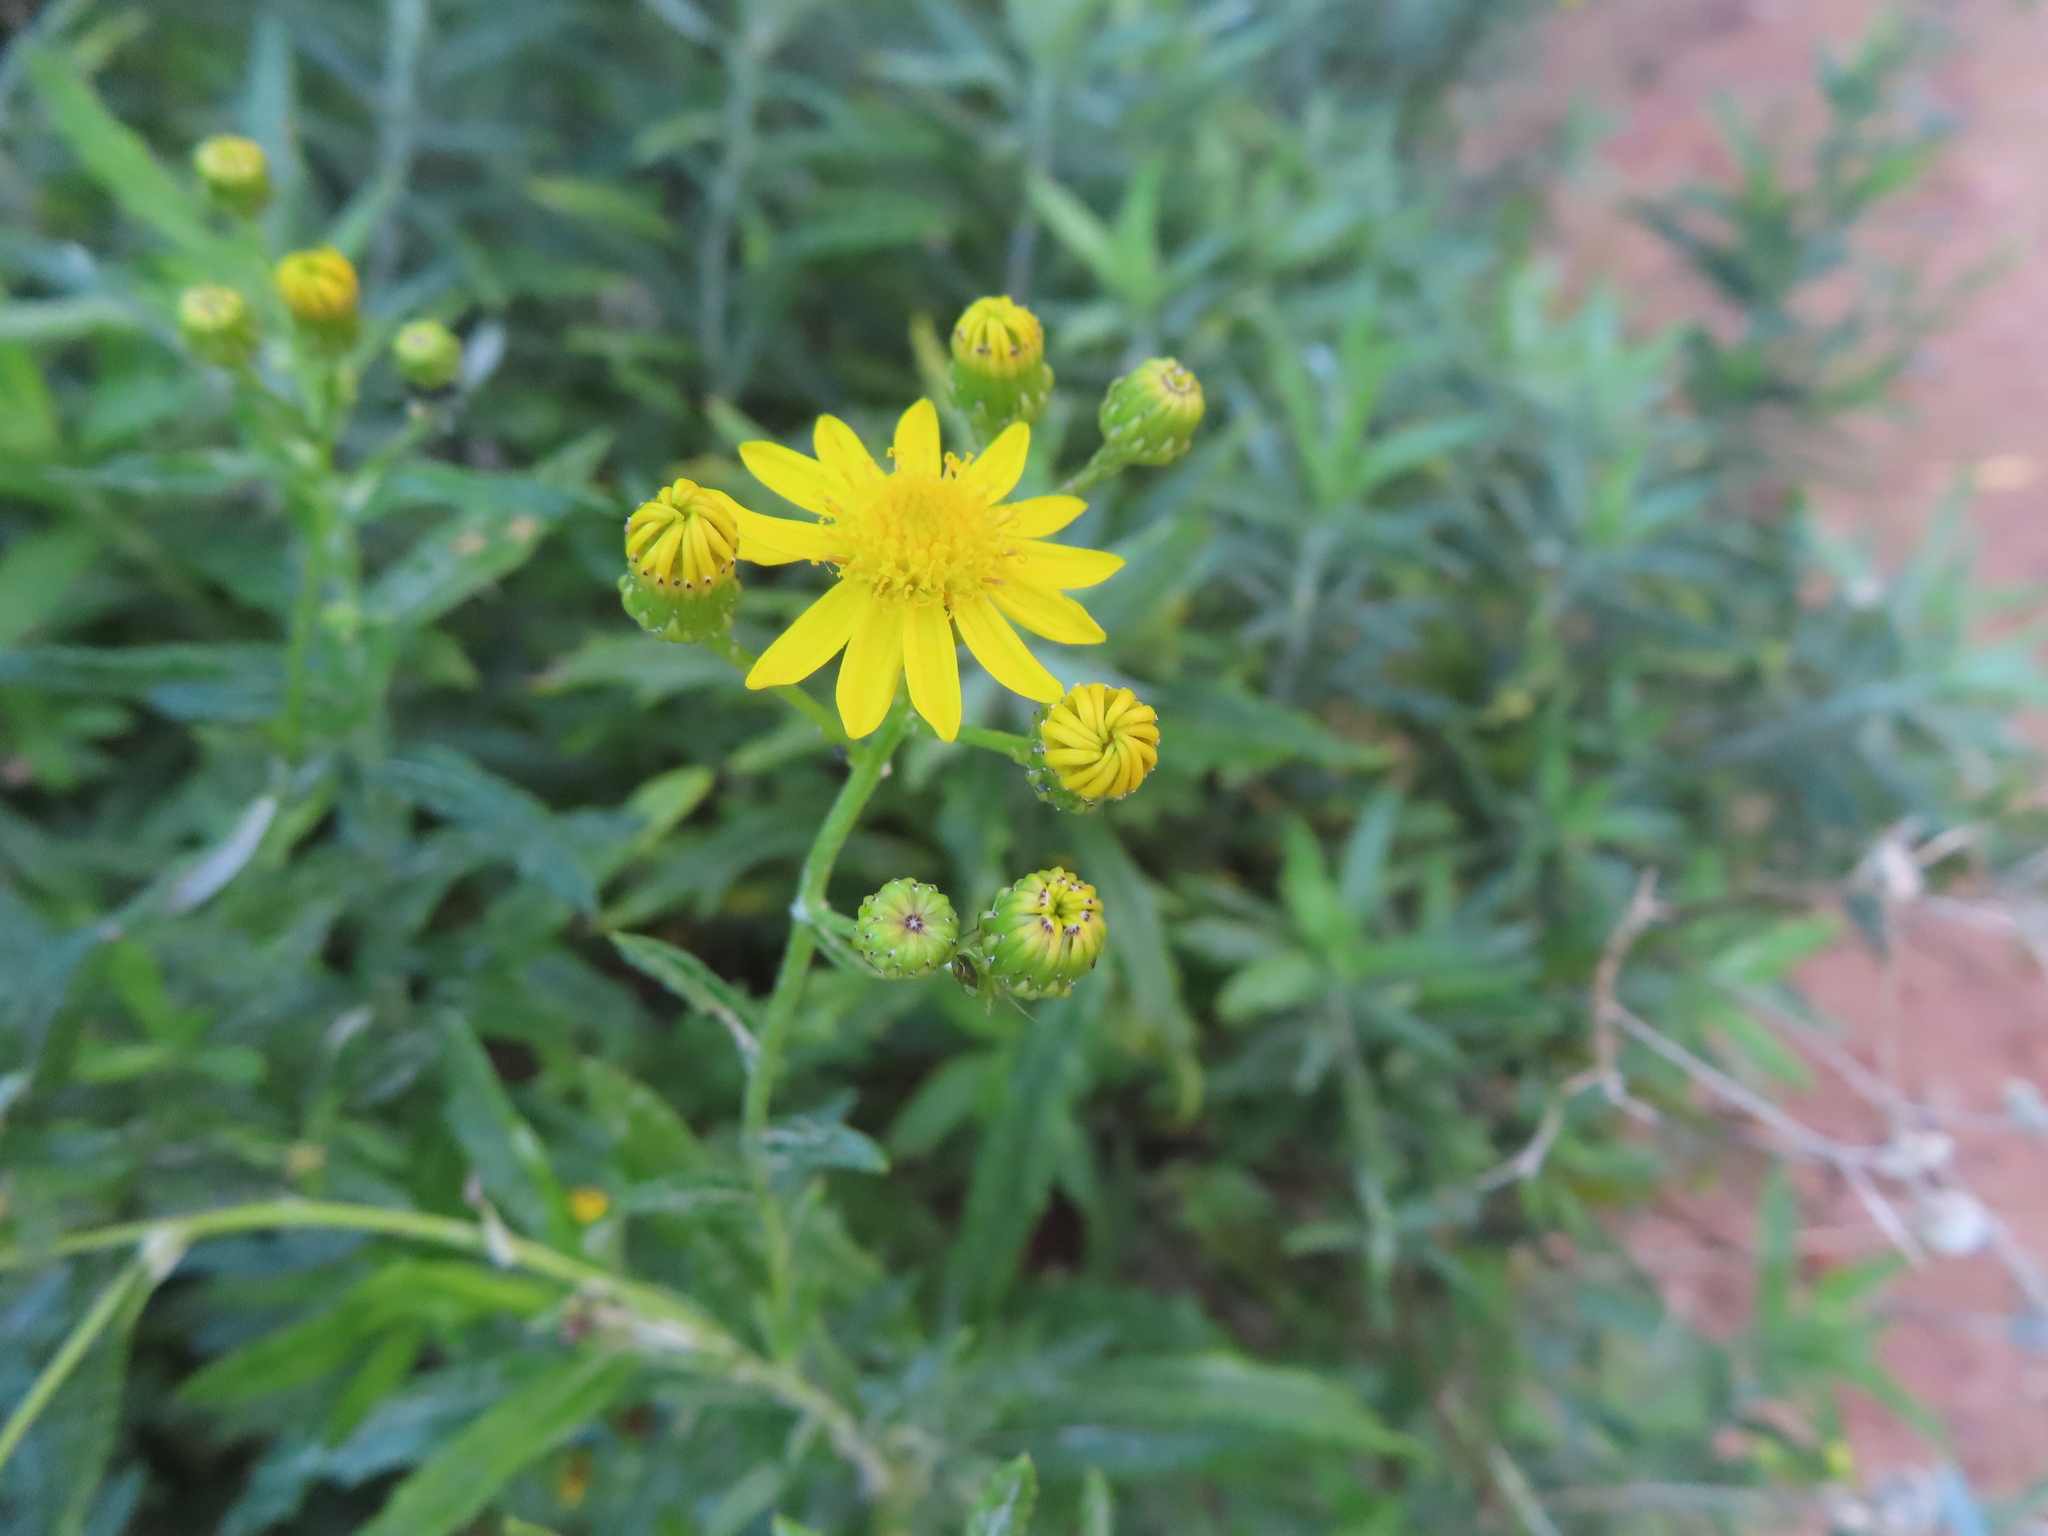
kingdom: Plantae
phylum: Tracheophyta
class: Magnoliopsida
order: Asterales
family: Asteraceae
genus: Senecio
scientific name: Senecio pterophorus
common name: Shoddy ragwort
